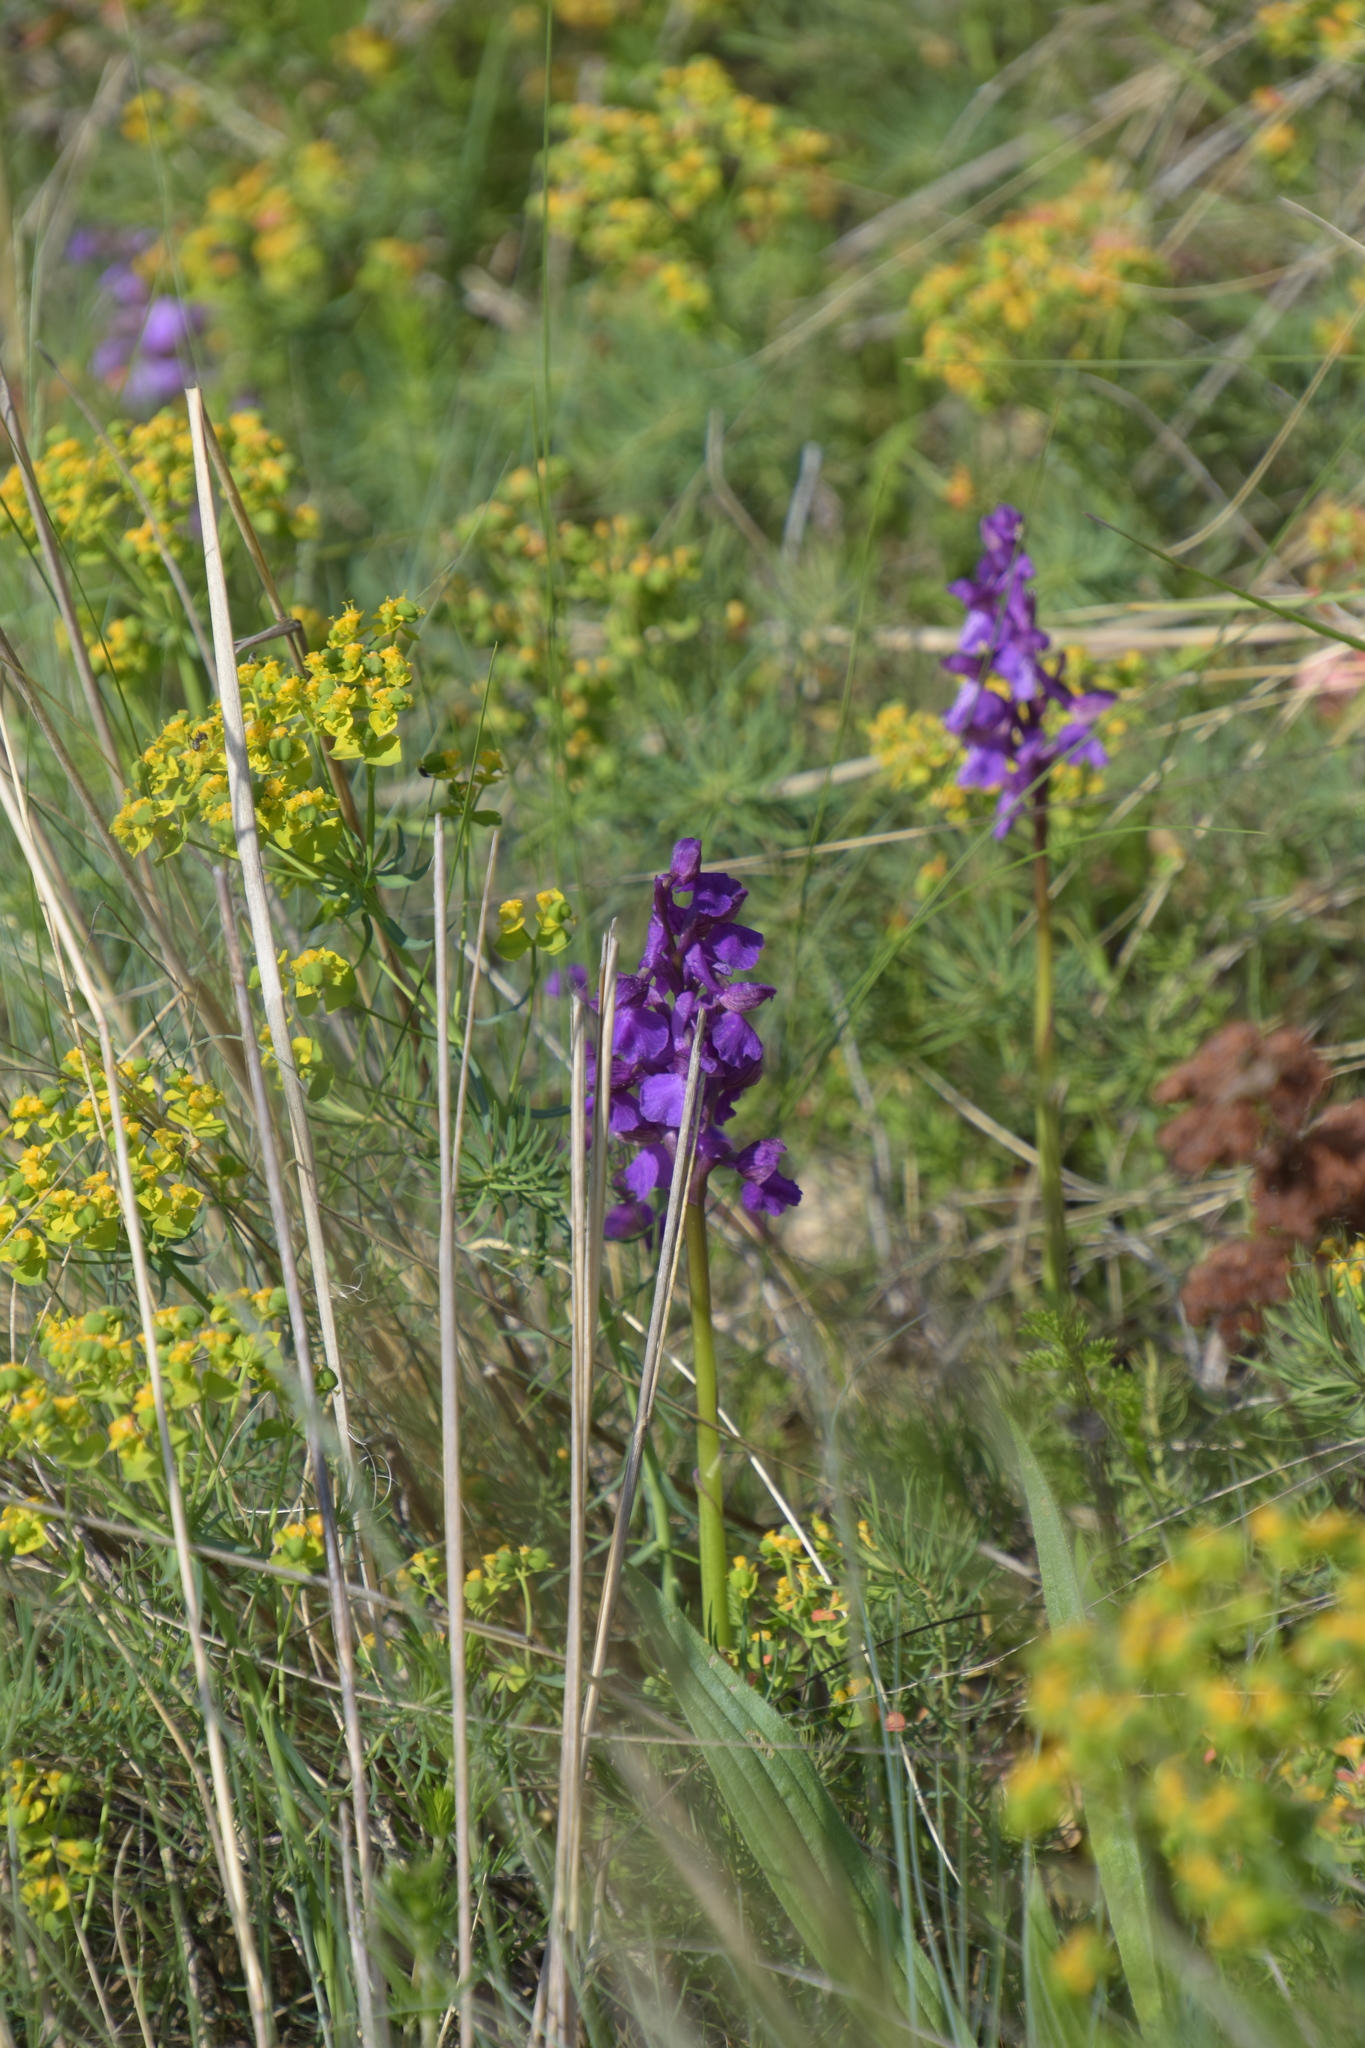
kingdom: Plantae
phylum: Tracheophyta
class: Liliopsida
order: Asparagales
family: Orchidaceae
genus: Anacamptis
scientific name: Anacamptis morio
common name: Green-winged orchid
